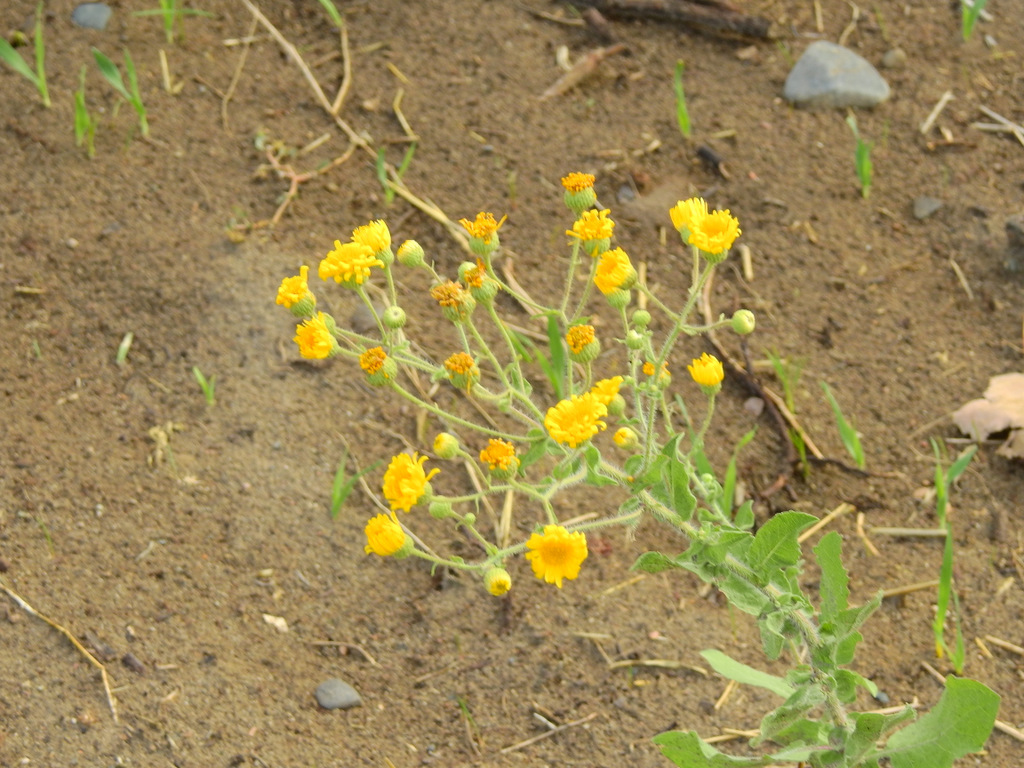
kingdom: Plantae
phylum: Tracheophyta
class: Magnoliopsida
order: Asterales
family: Asteraceae
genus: Heterotheca
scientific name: Heterotheca subaxillaris
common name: Camphorweed
